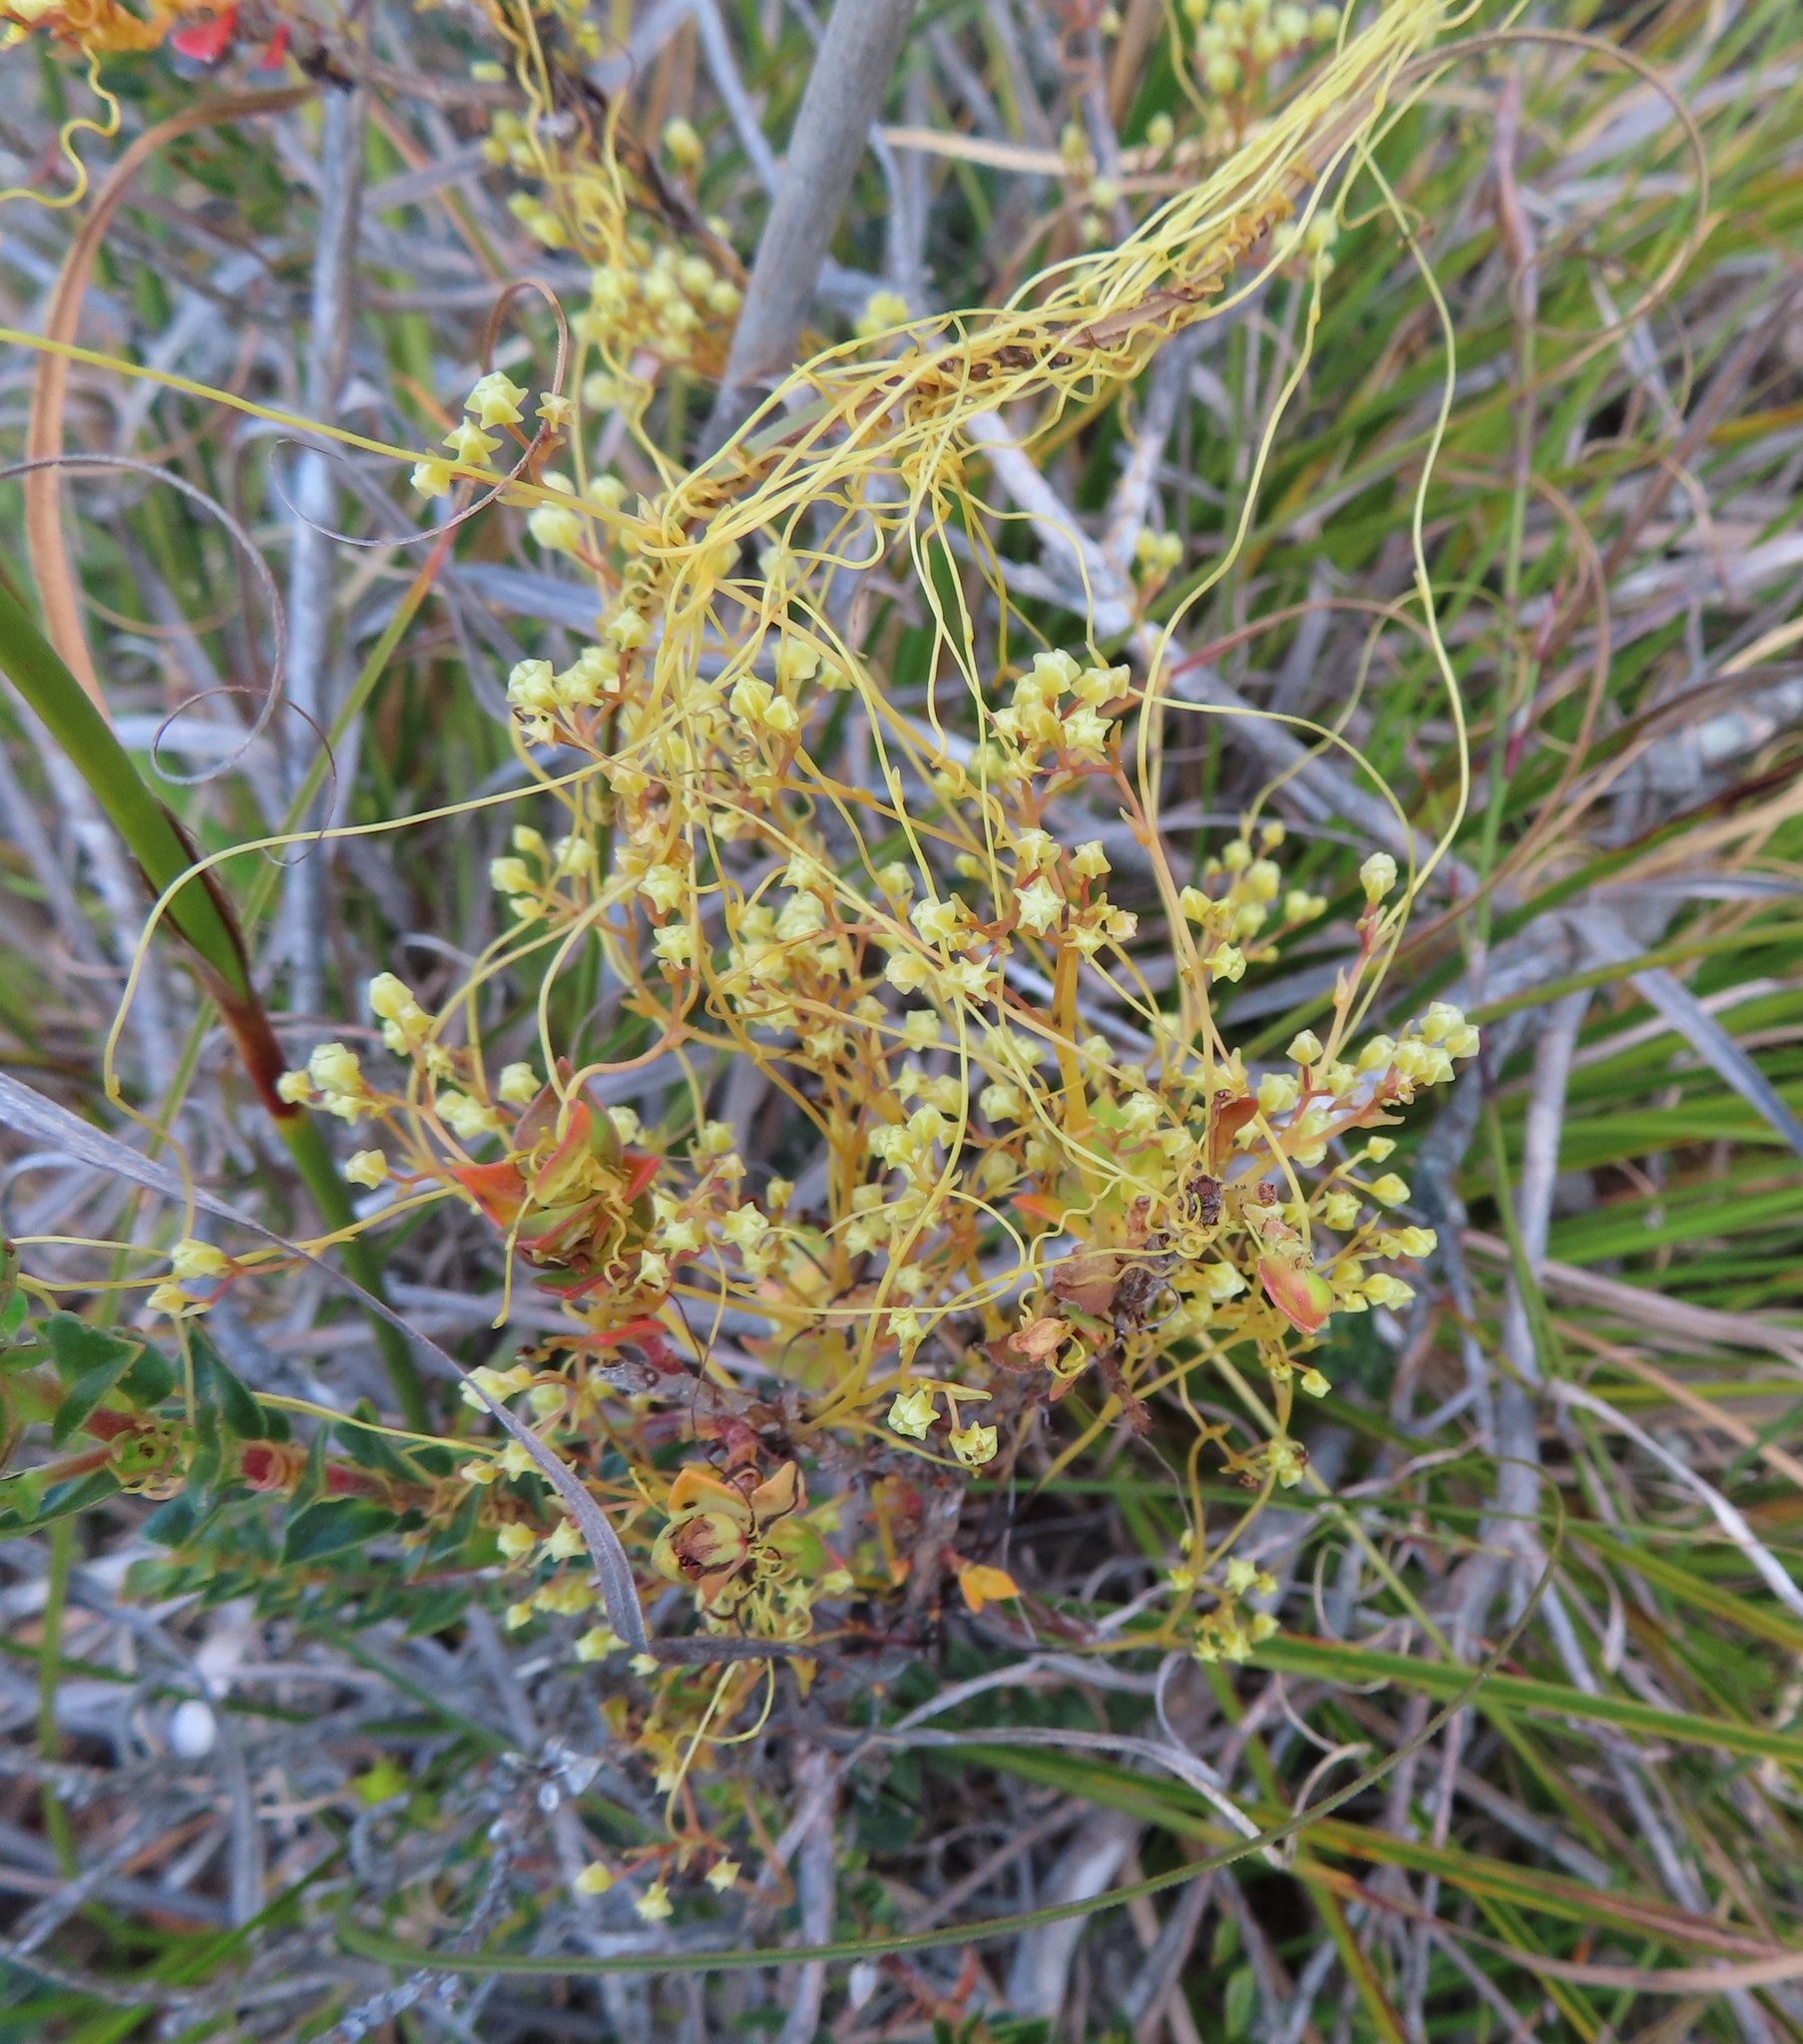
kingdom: Plantae
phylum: Tracheophyta
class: Magnoliopsida
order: Solanales
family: Convolvulaceae
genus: Cuscuta
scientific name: Cuscuta angulata
